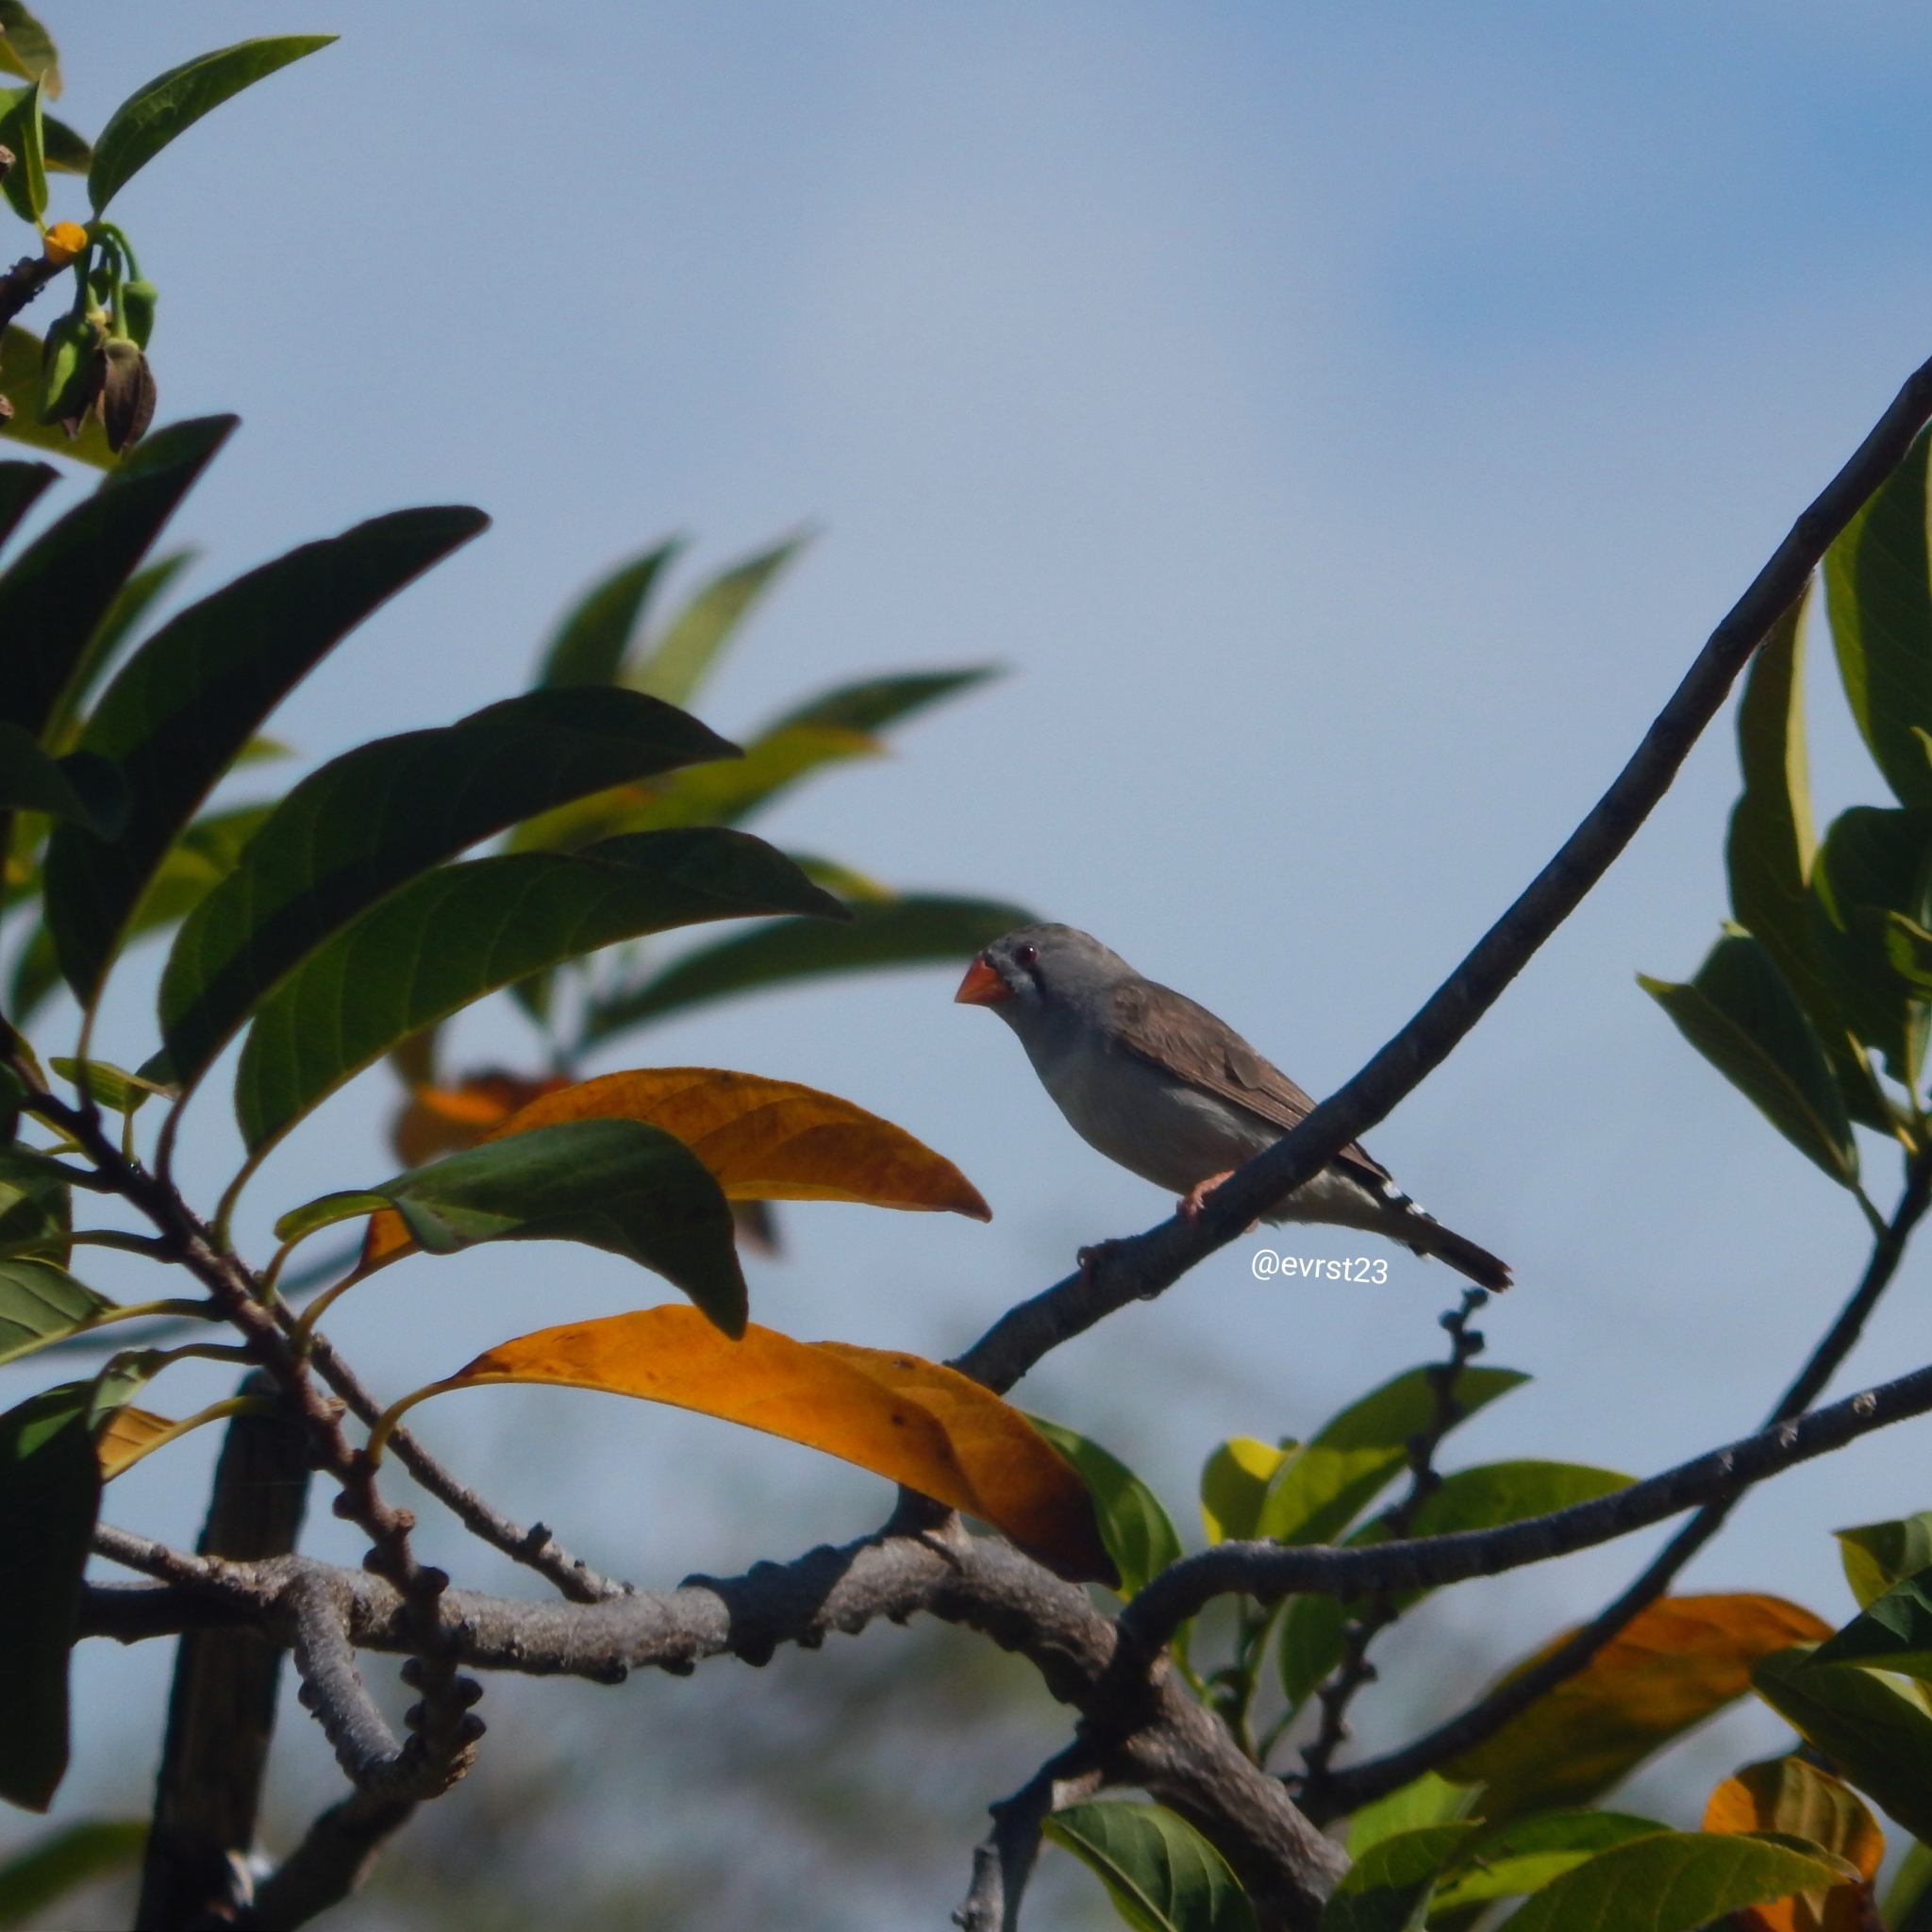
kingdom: Animalia
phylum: Chordata
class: Aves
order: Passeriformes
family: Estrildidae
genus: Taeniopygia
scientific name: Taeniopygia guttata
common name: Zebra finch
